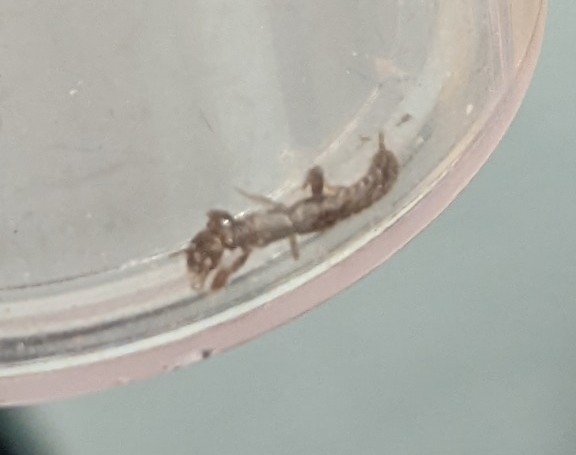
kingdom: Animalia
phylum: Arthropoda
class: Insecta
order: Embioptera
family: Oligotomidae
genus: Oligotoma
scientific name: Oligotoma nigra
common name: Black webspinner
